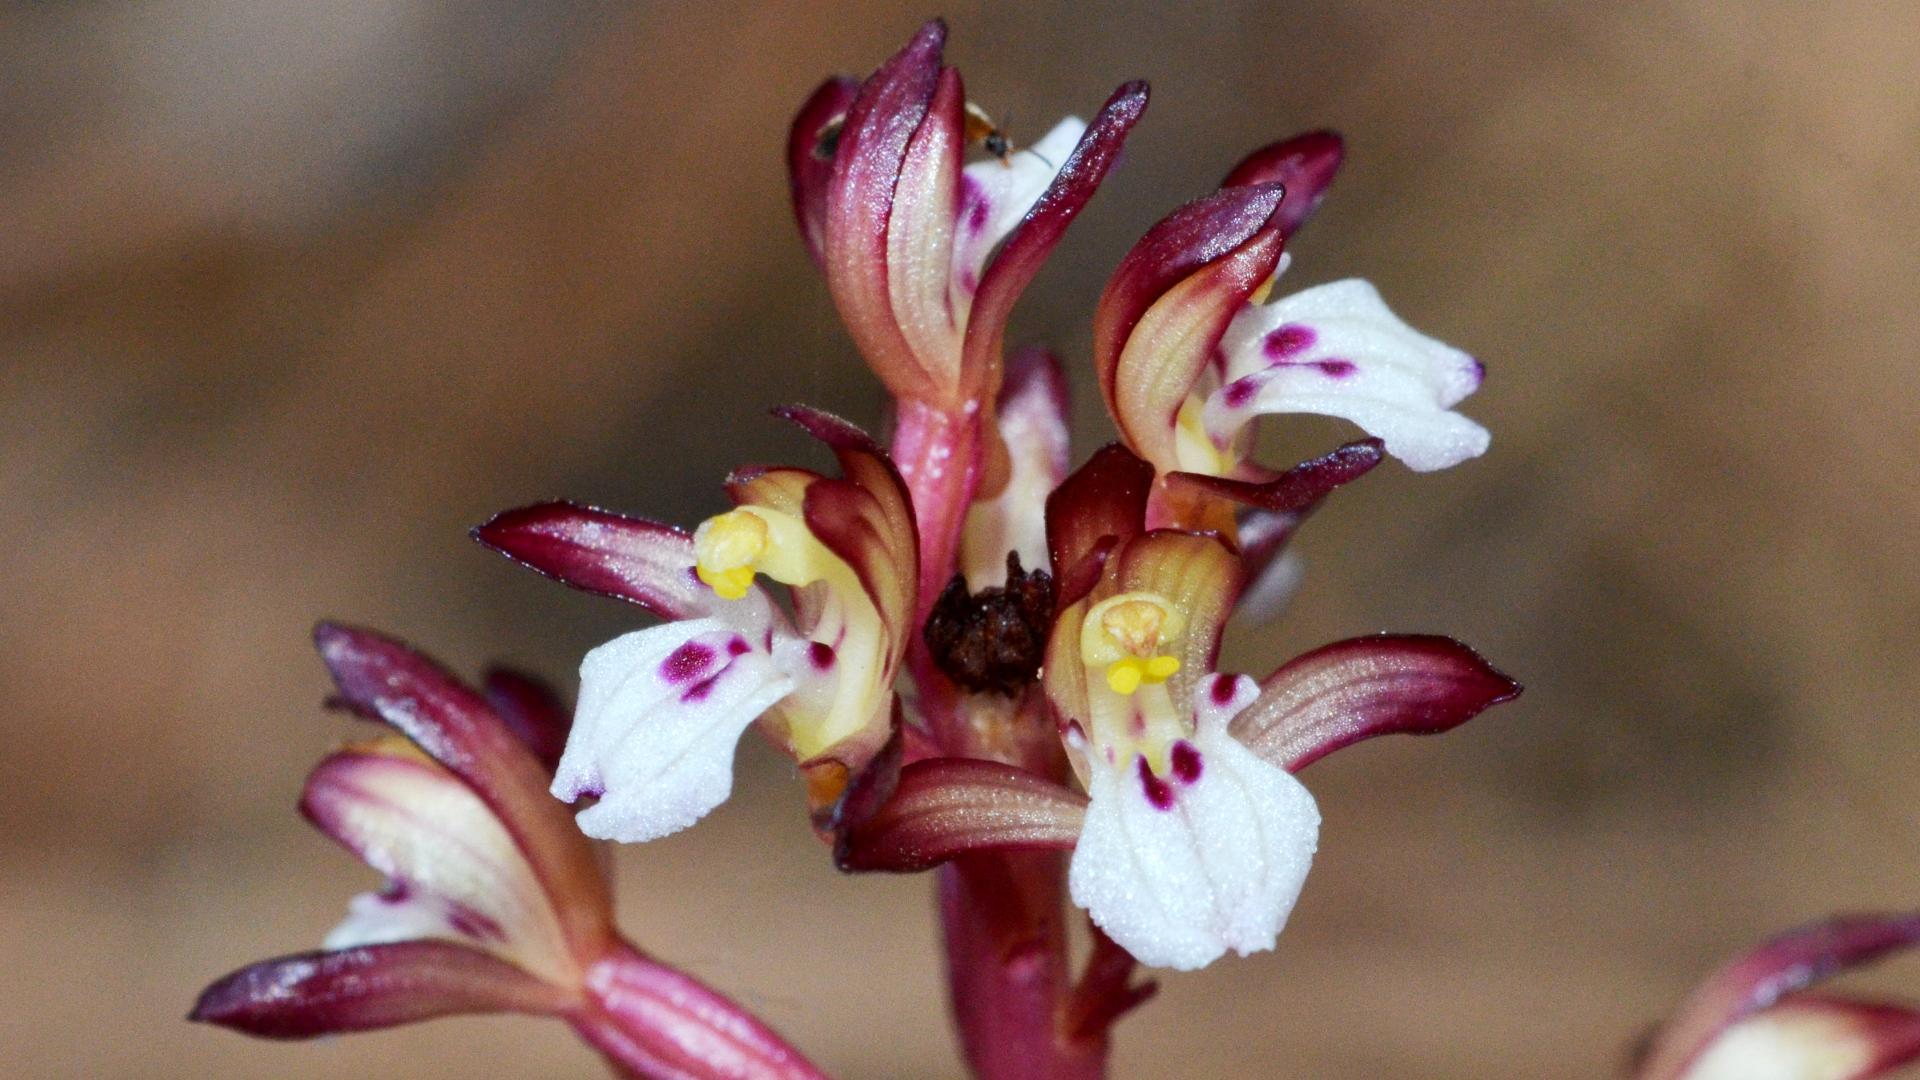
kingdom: Plantae
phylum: Tracheophyta
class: Liliopsida
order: Asparagales
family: Orchidaceae
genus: Corallorhiza
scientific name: Corallorhiza maculata
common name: Spotted coralroot
